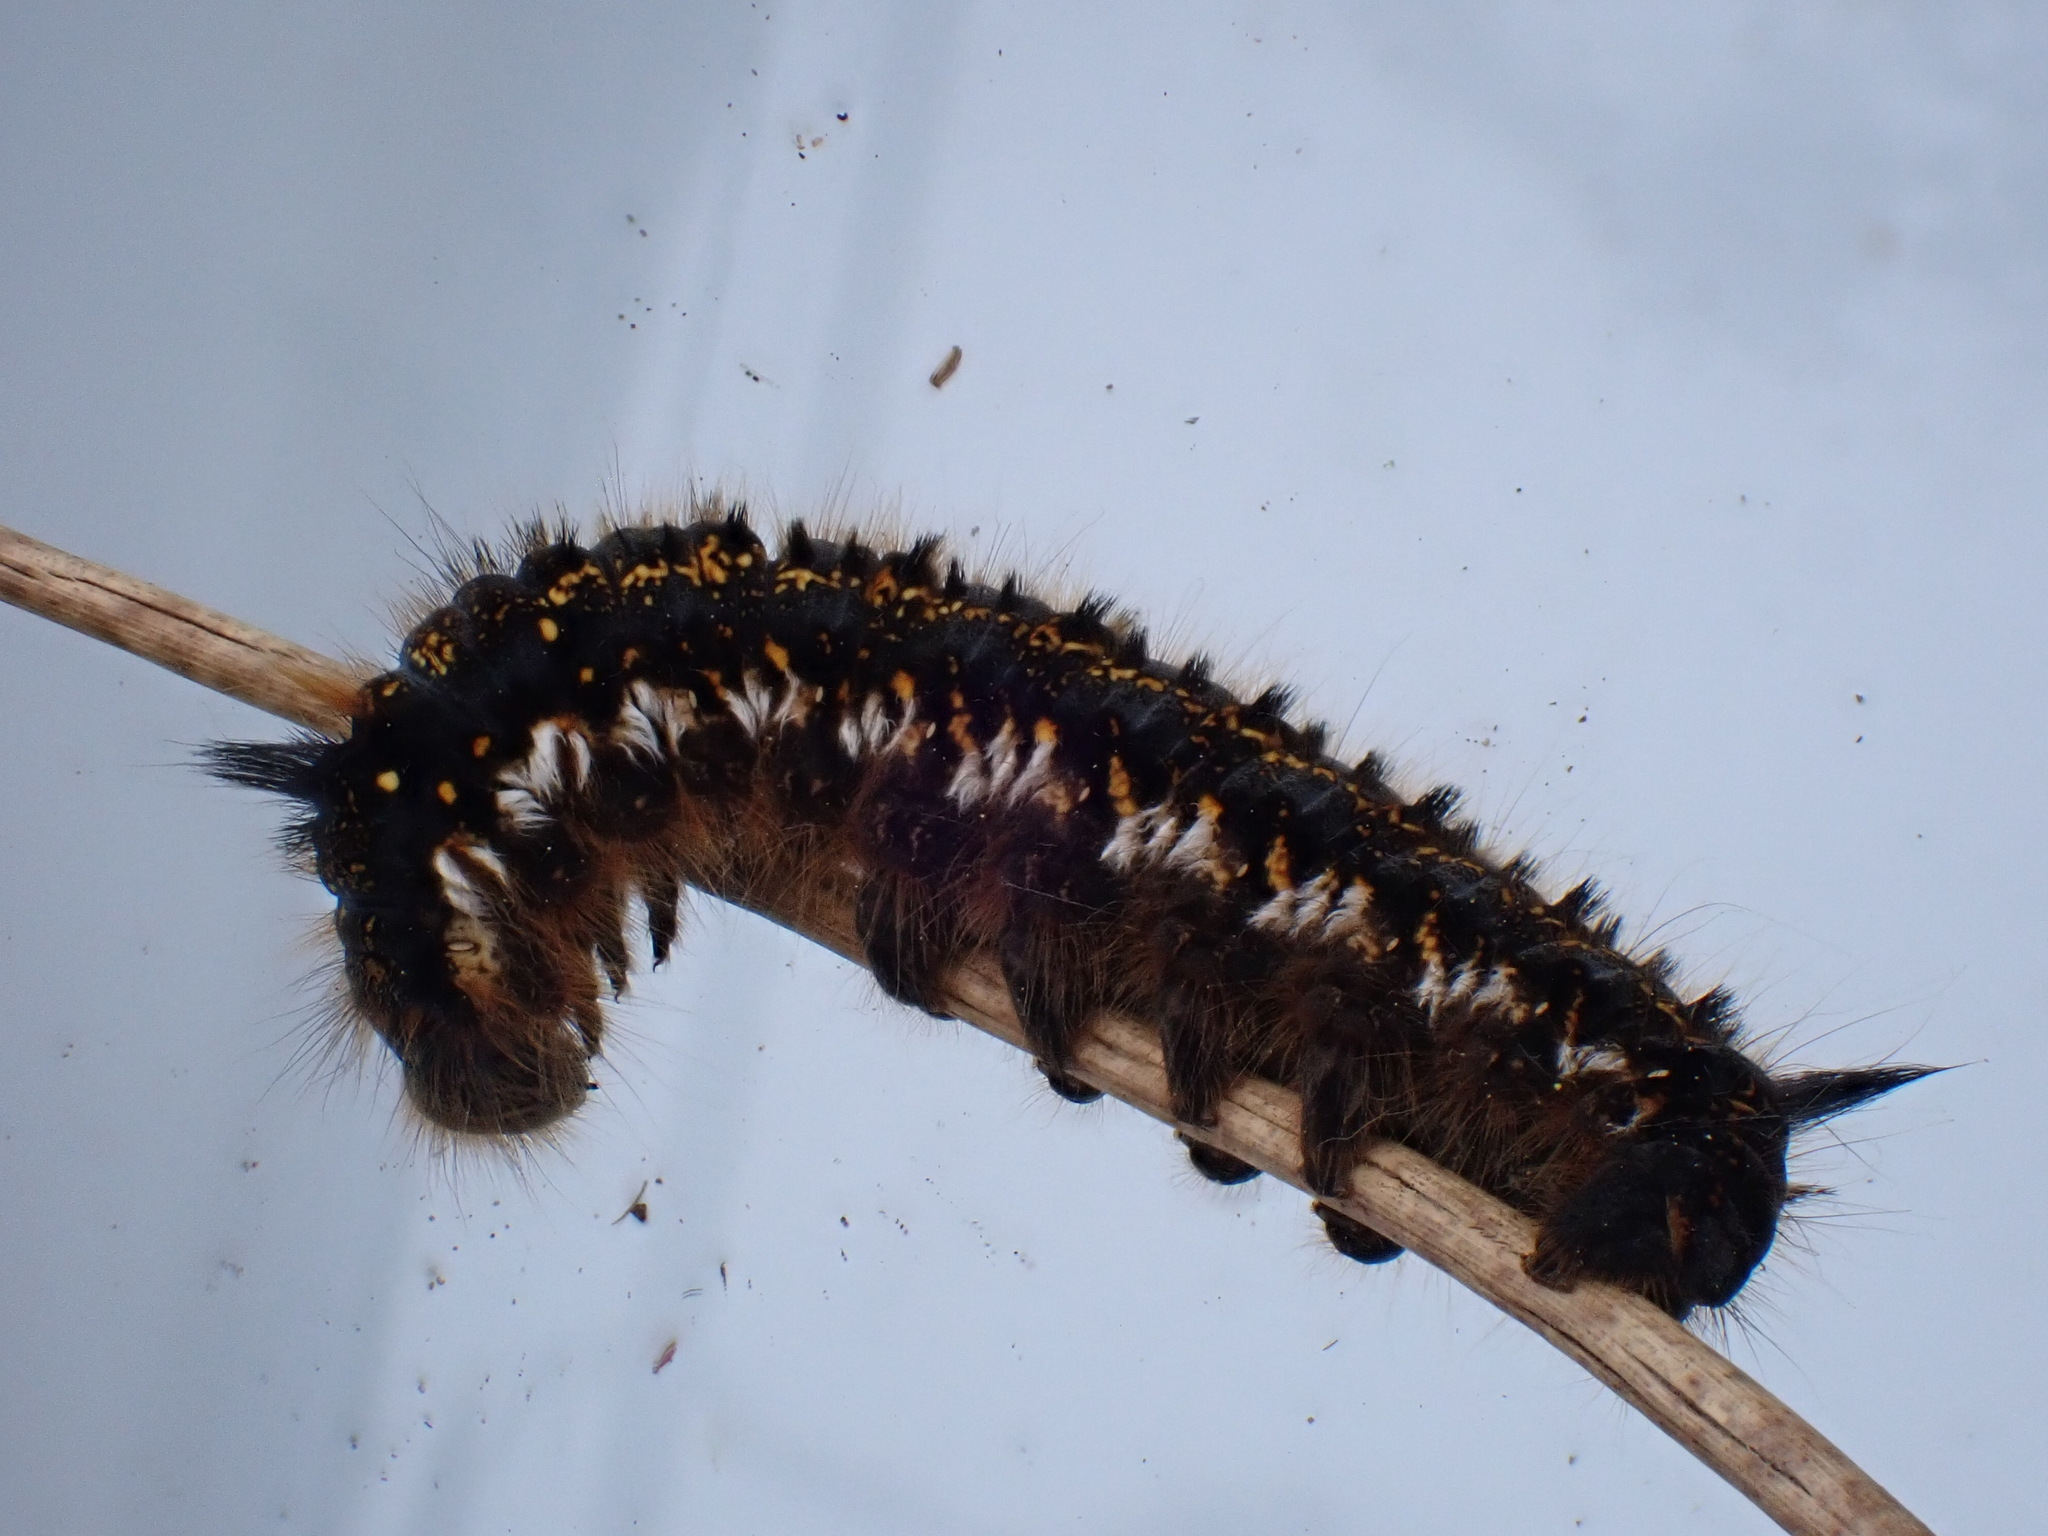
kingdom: Animalia
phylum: Arthropoda
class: Insecta
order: Lepidoptera
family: Lasiocampidae
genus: Euthrix
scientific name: Euthrix potatoria
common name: Drinker
